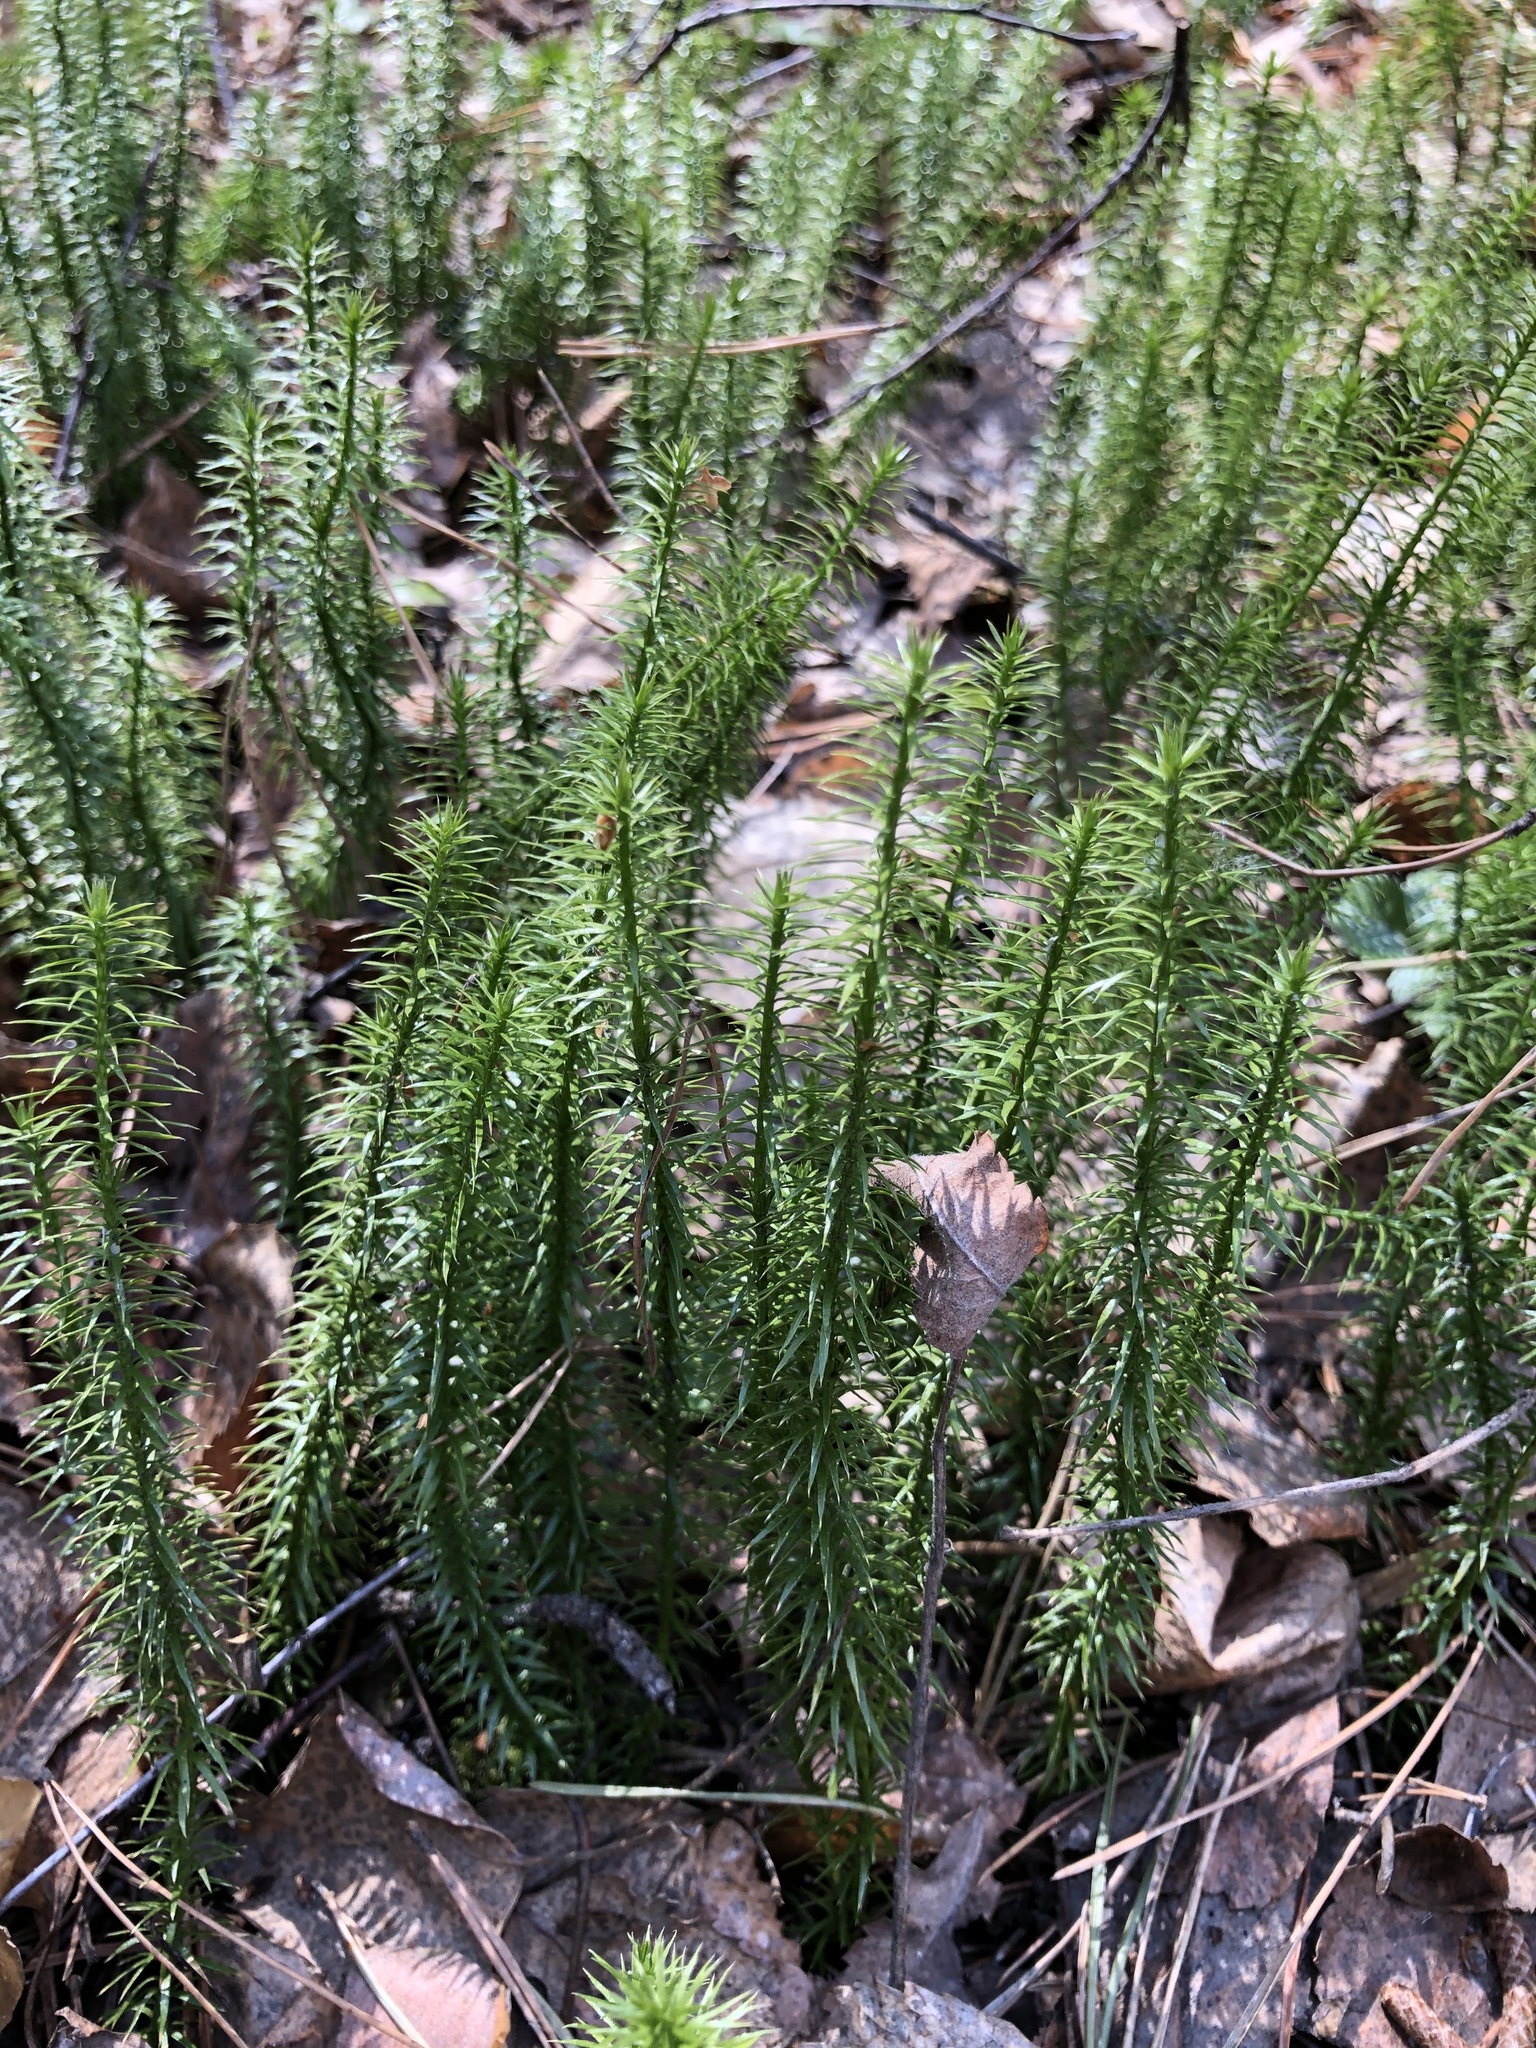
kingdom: Plantae
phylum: Tracheophyta
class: Lycopodiopsida
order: Lycopodiales
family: Lycopodiaceae
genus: Spinulum
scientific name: Spinulum annotinum
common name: Interrupted club-moss
